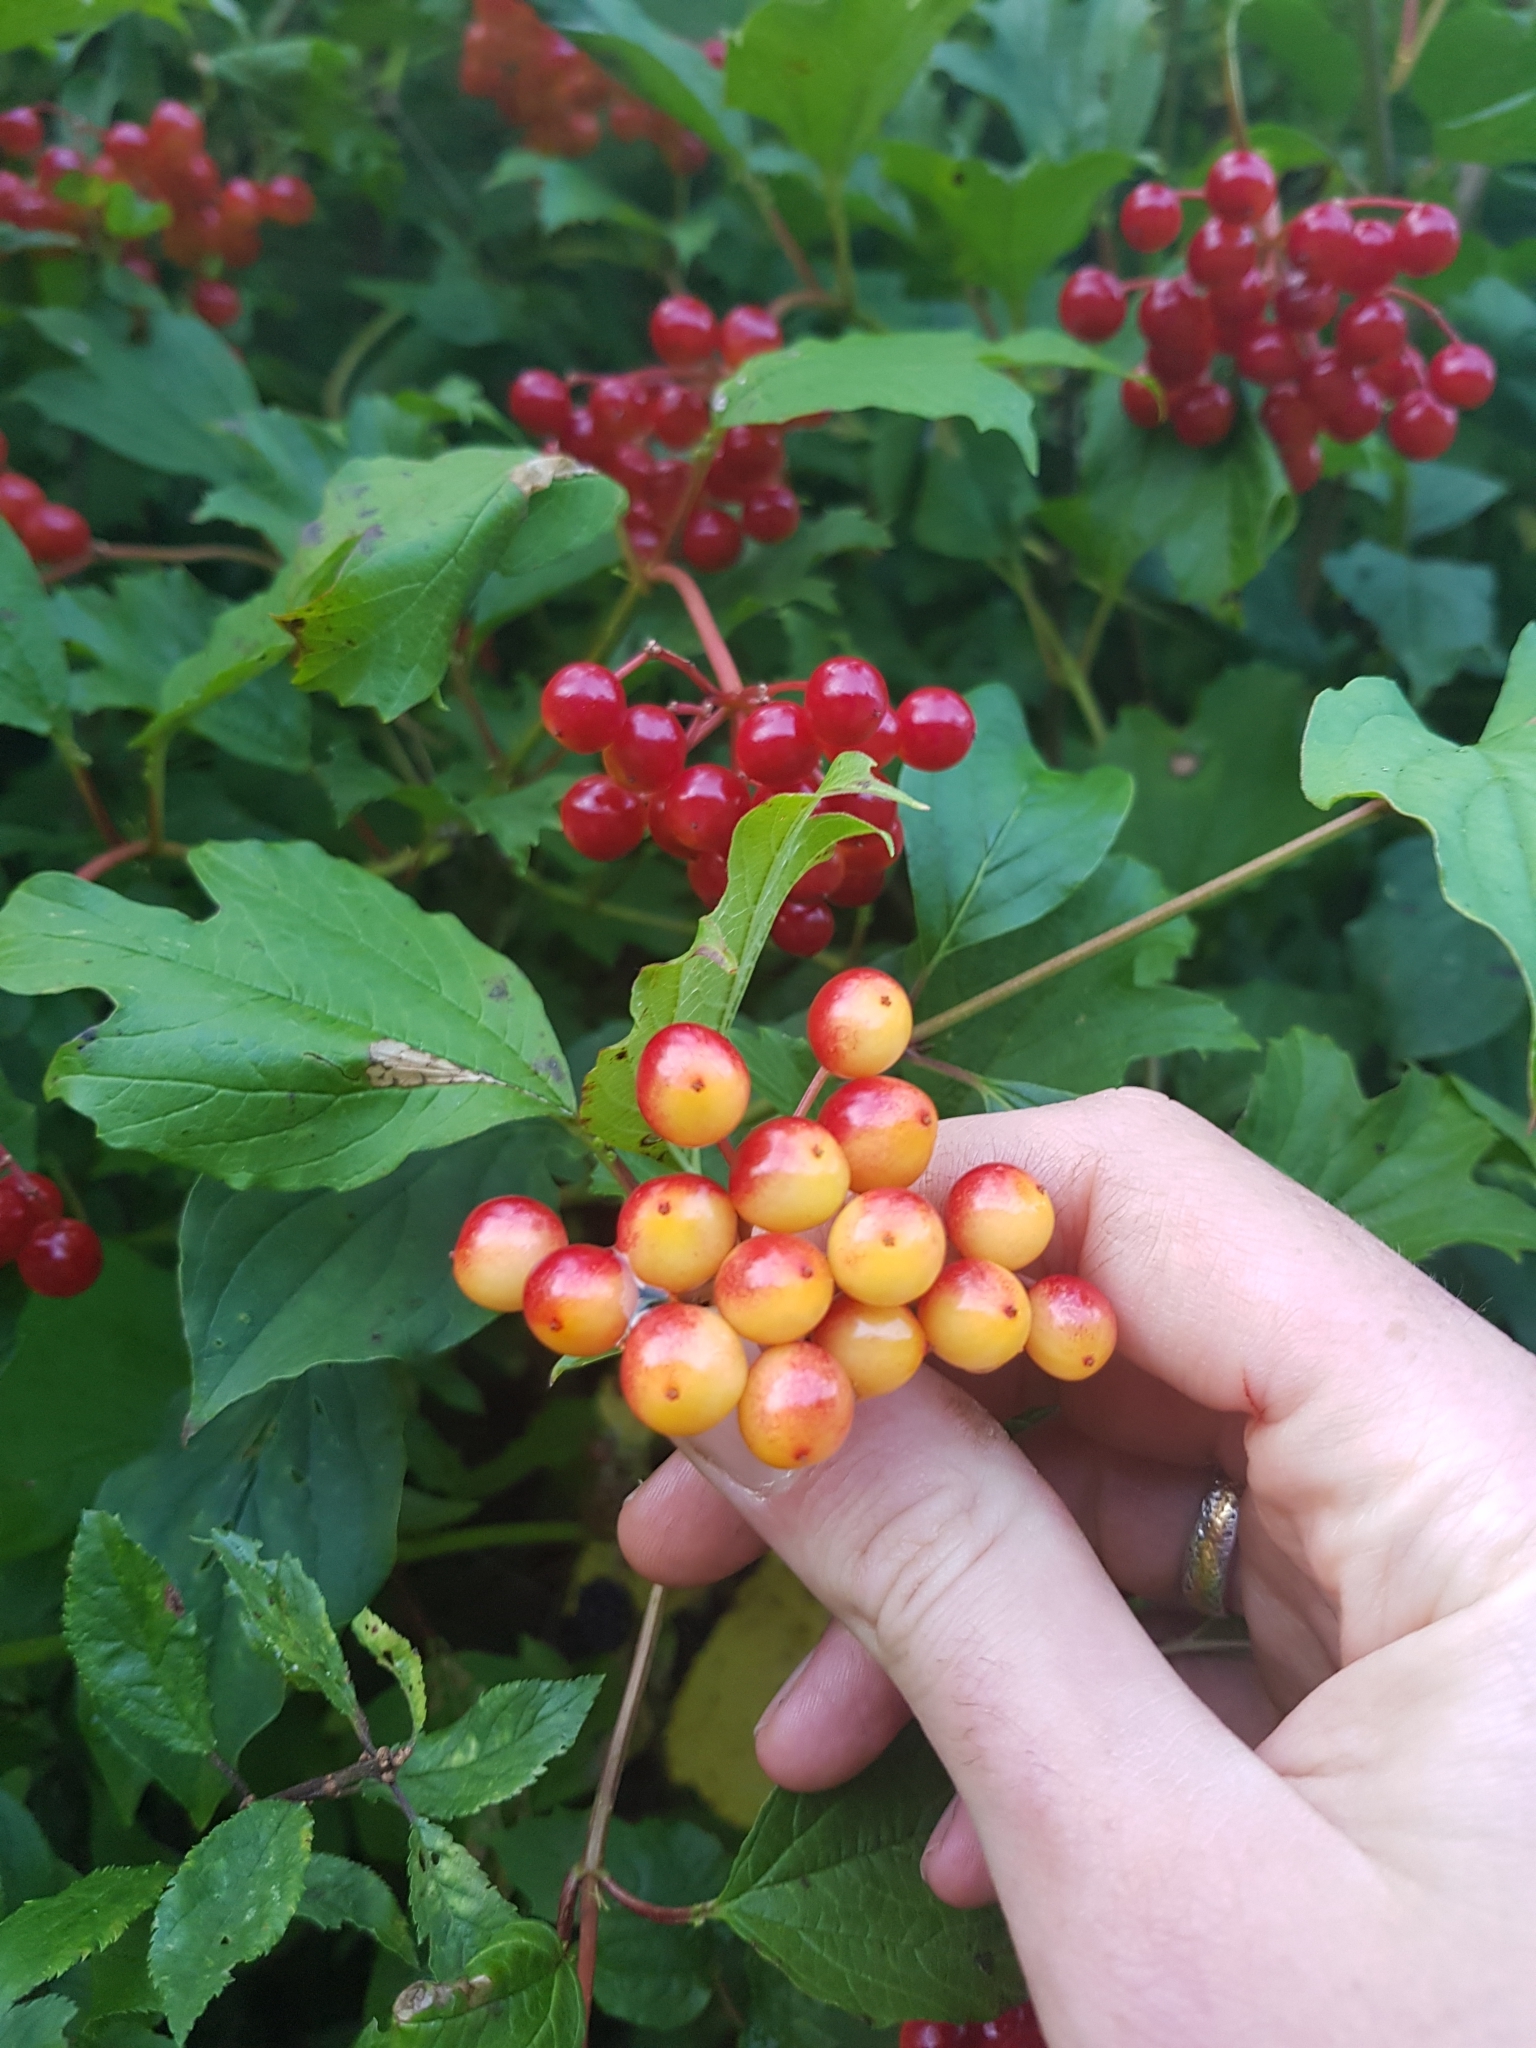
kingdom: Plantae
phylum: Tracheophyta
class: Magnoliopsida
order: Dipsacales
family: Viburnaceae
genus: Viburnum
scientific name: Viburnum opulus
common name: Guelder-rose
